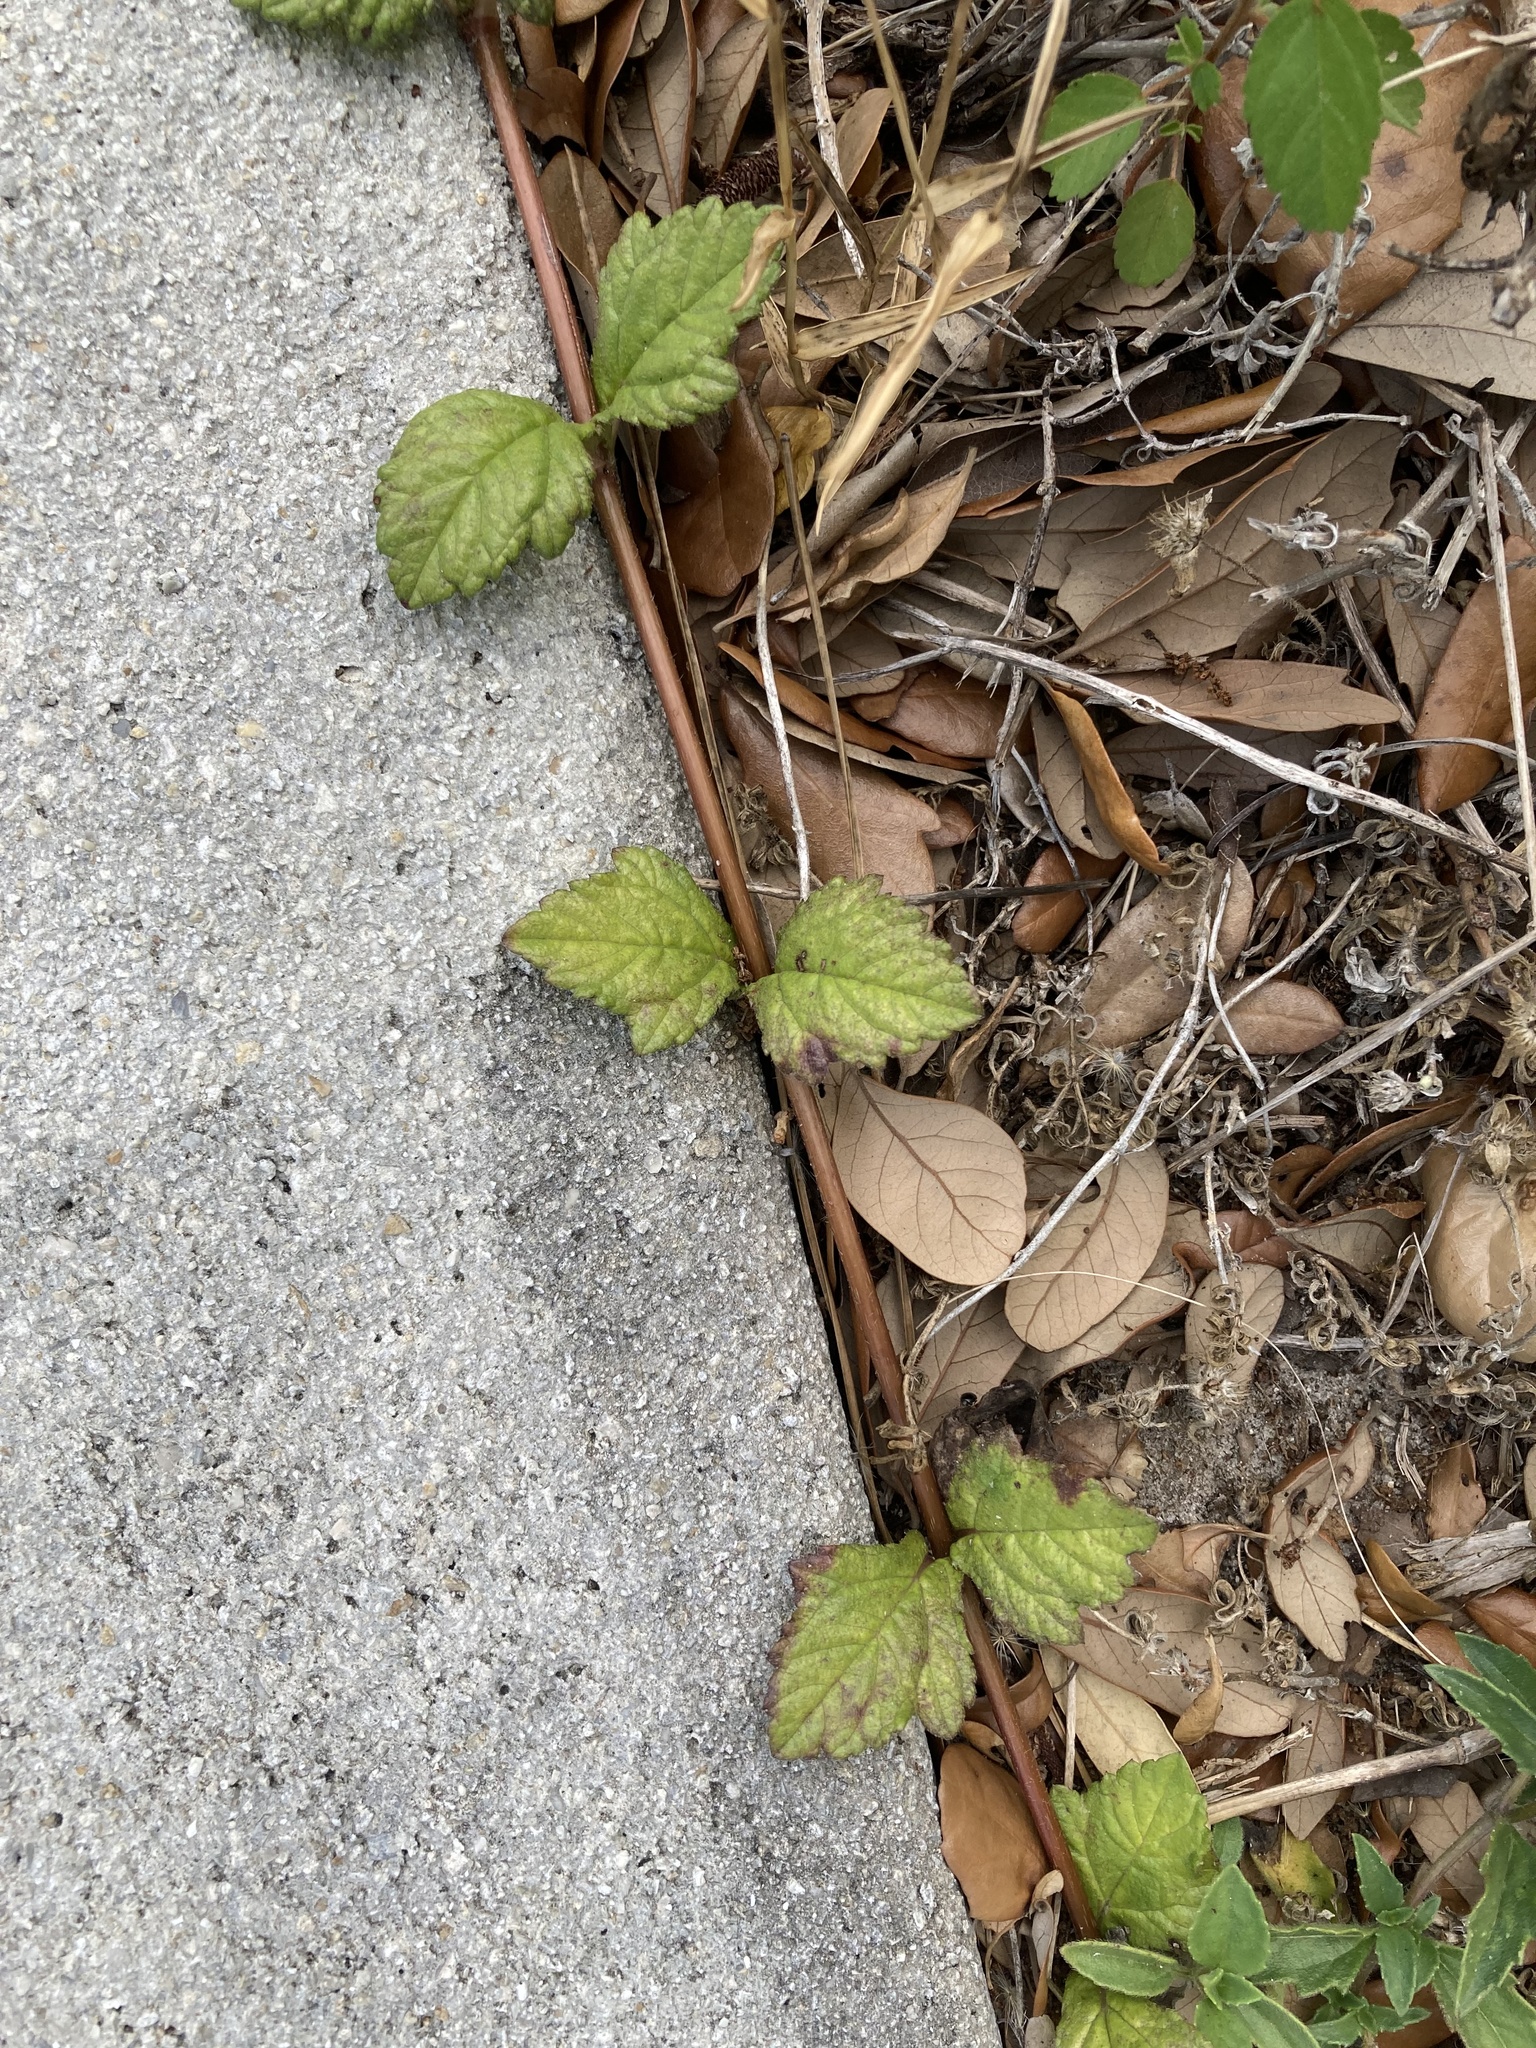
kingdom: Plantae
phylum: Tracheophyta
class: Magnoliopsida
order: Asterales
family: Asteraceae
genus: Sphagneticola
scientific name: Sphagneticola trilobata
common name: Bay biscayne creeping-oxeye
